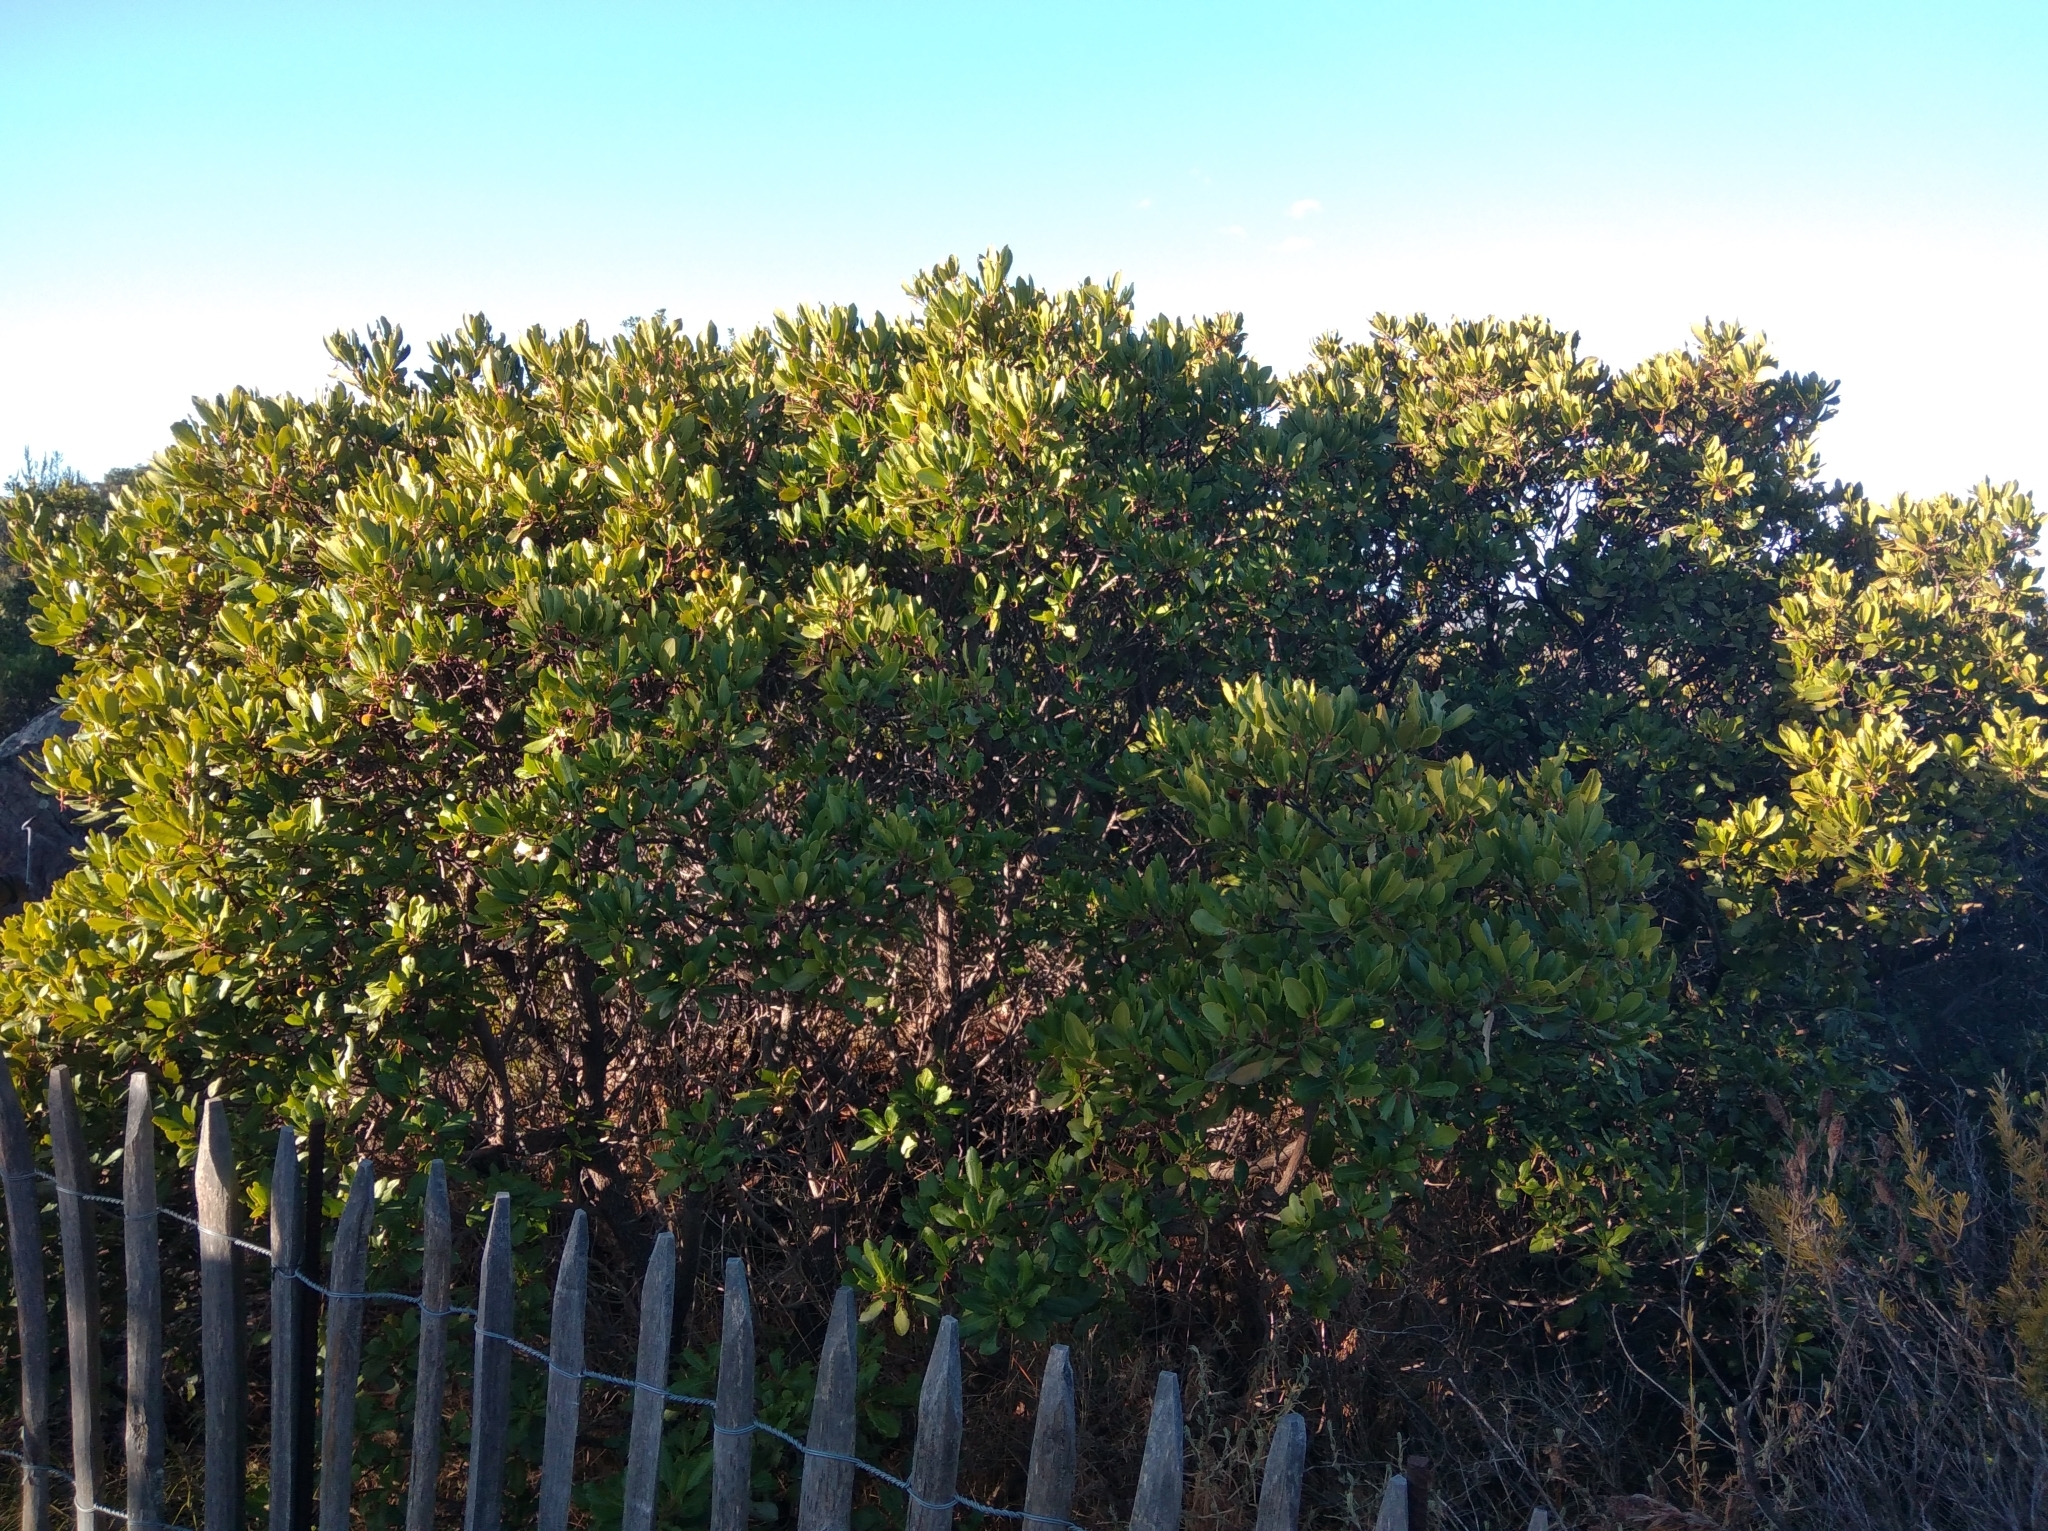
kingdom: Plantae
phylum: Tracheophyta
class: Magnoliopsida
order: Ericales
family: Ericaceae
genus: Arbutus
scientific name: Arbutus unedo
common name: Strawberry-tree
